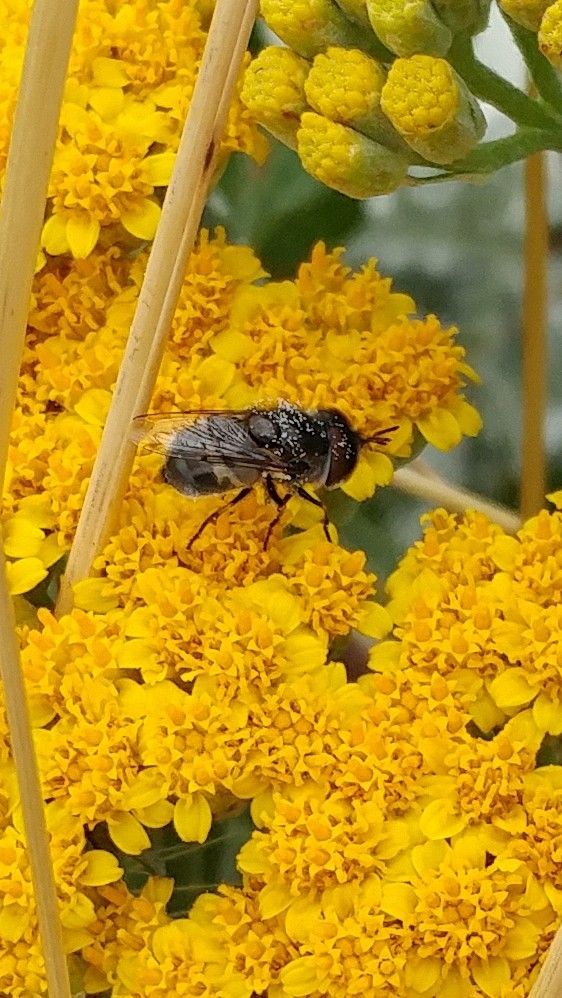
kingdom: Animalia
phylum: Arthropoda
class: Insecta
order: Diptera
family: Syrphidae
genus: Copestylum
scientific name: Copestylum lentum
